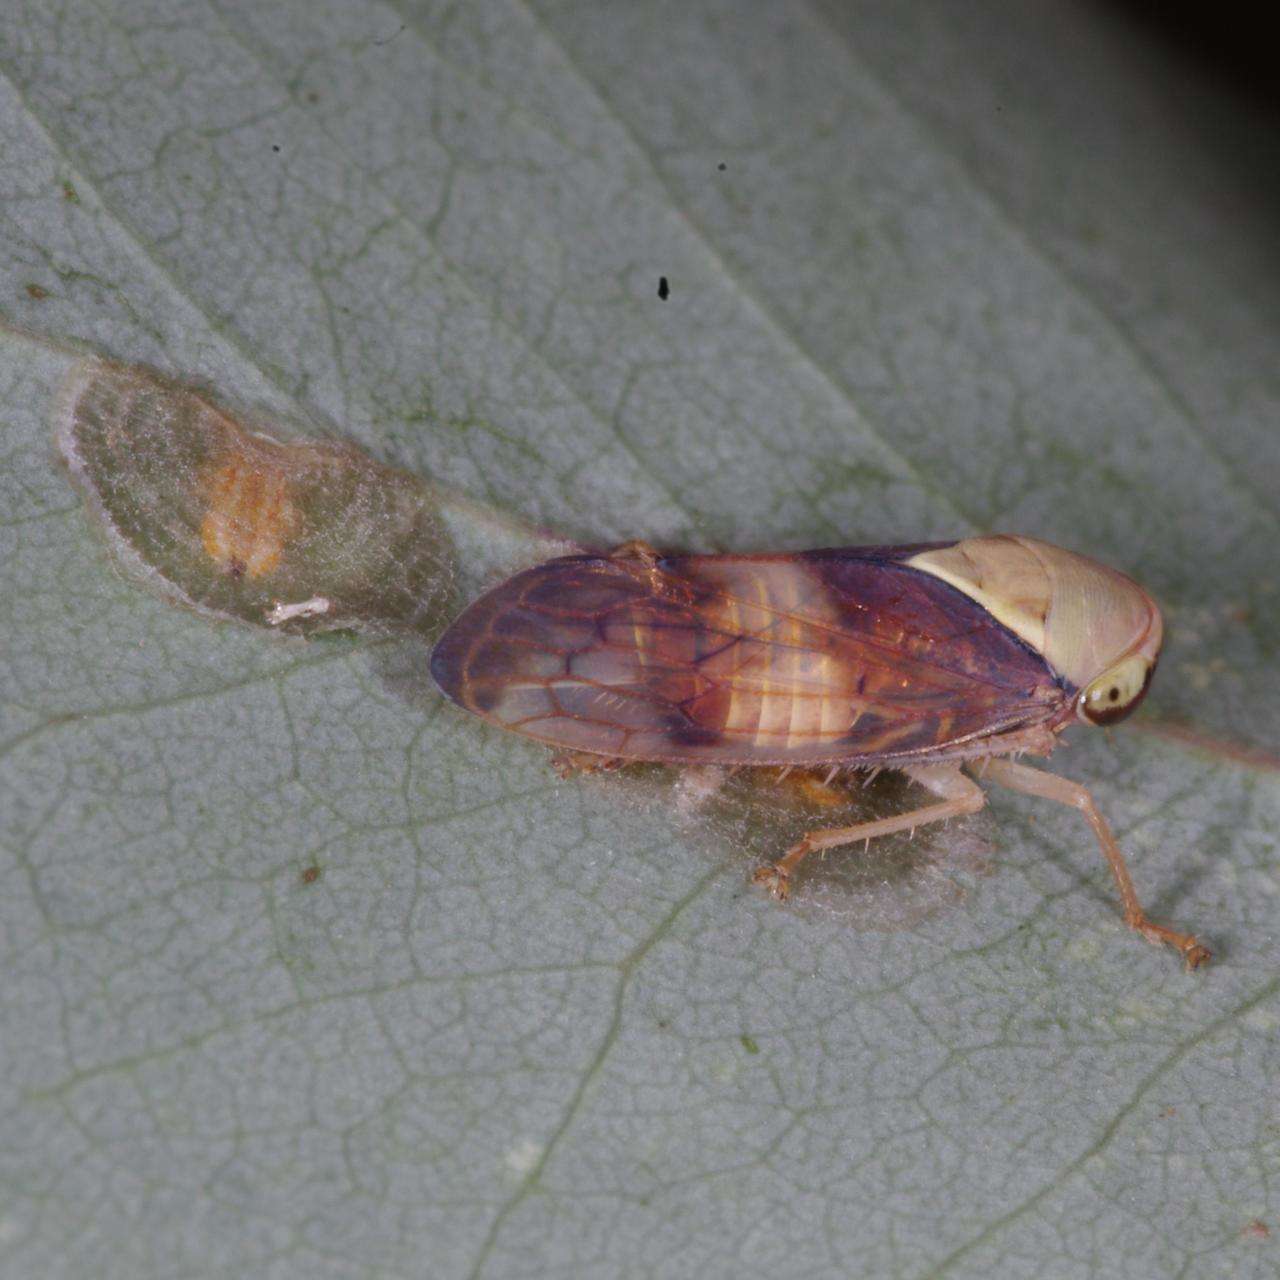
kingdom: Animalia
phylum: Arthropoda
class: Insecta
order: Hemiptera
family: Cicadellidae
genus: Brunotartessus
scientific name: Brunotartessus fulvus
